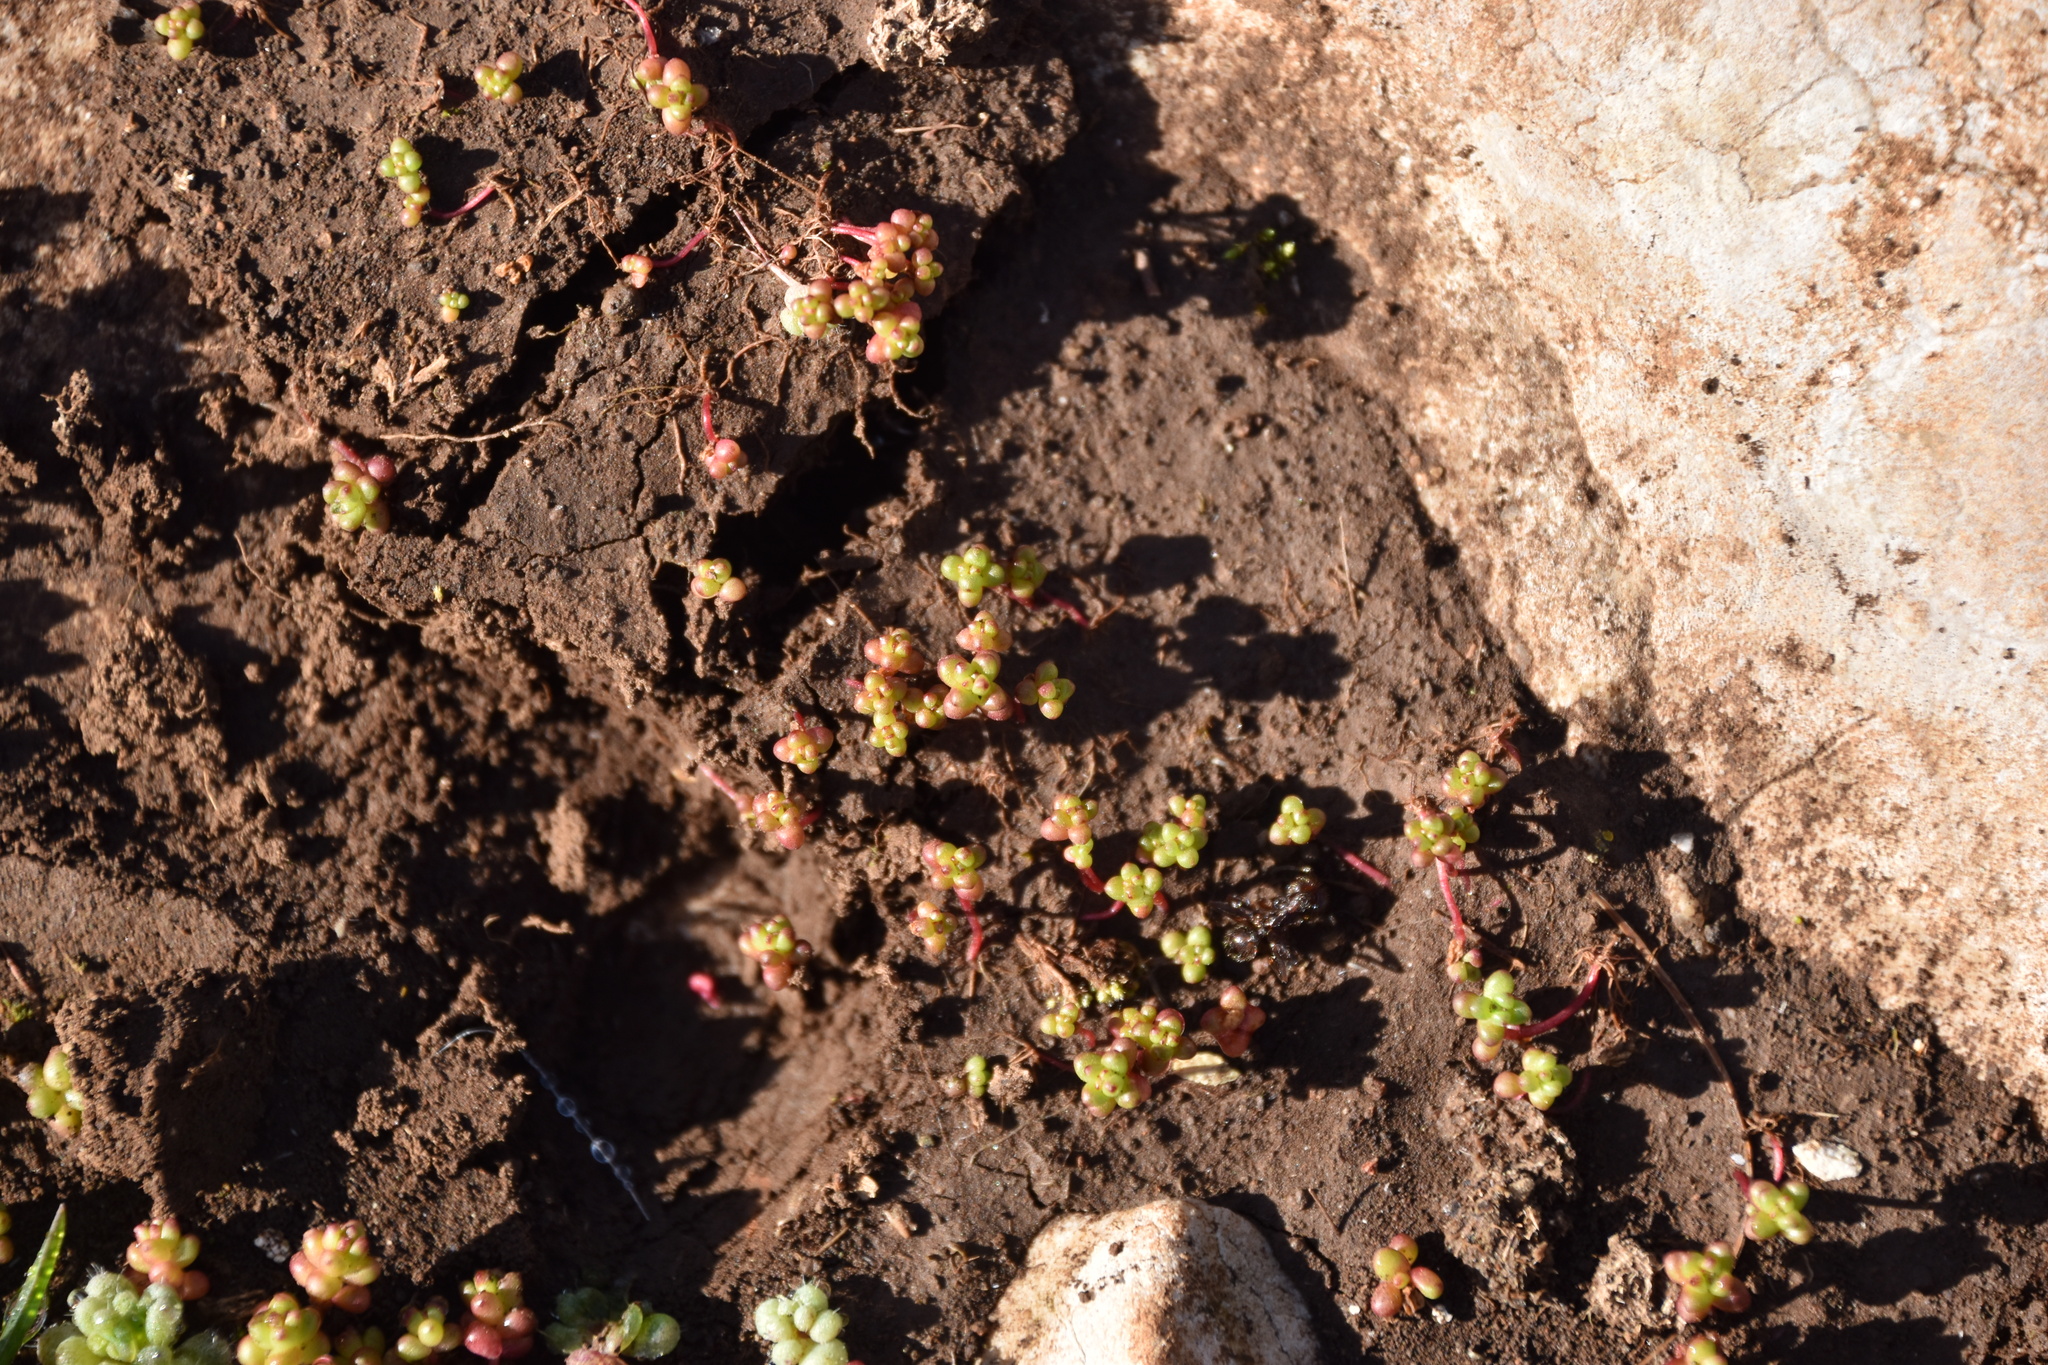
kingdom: Plantae
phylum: Tracheophyta
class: Magnoliopsida
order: Saxifragales
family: Crassulaceae
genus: Sedum
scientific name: Sedum cespitosum
